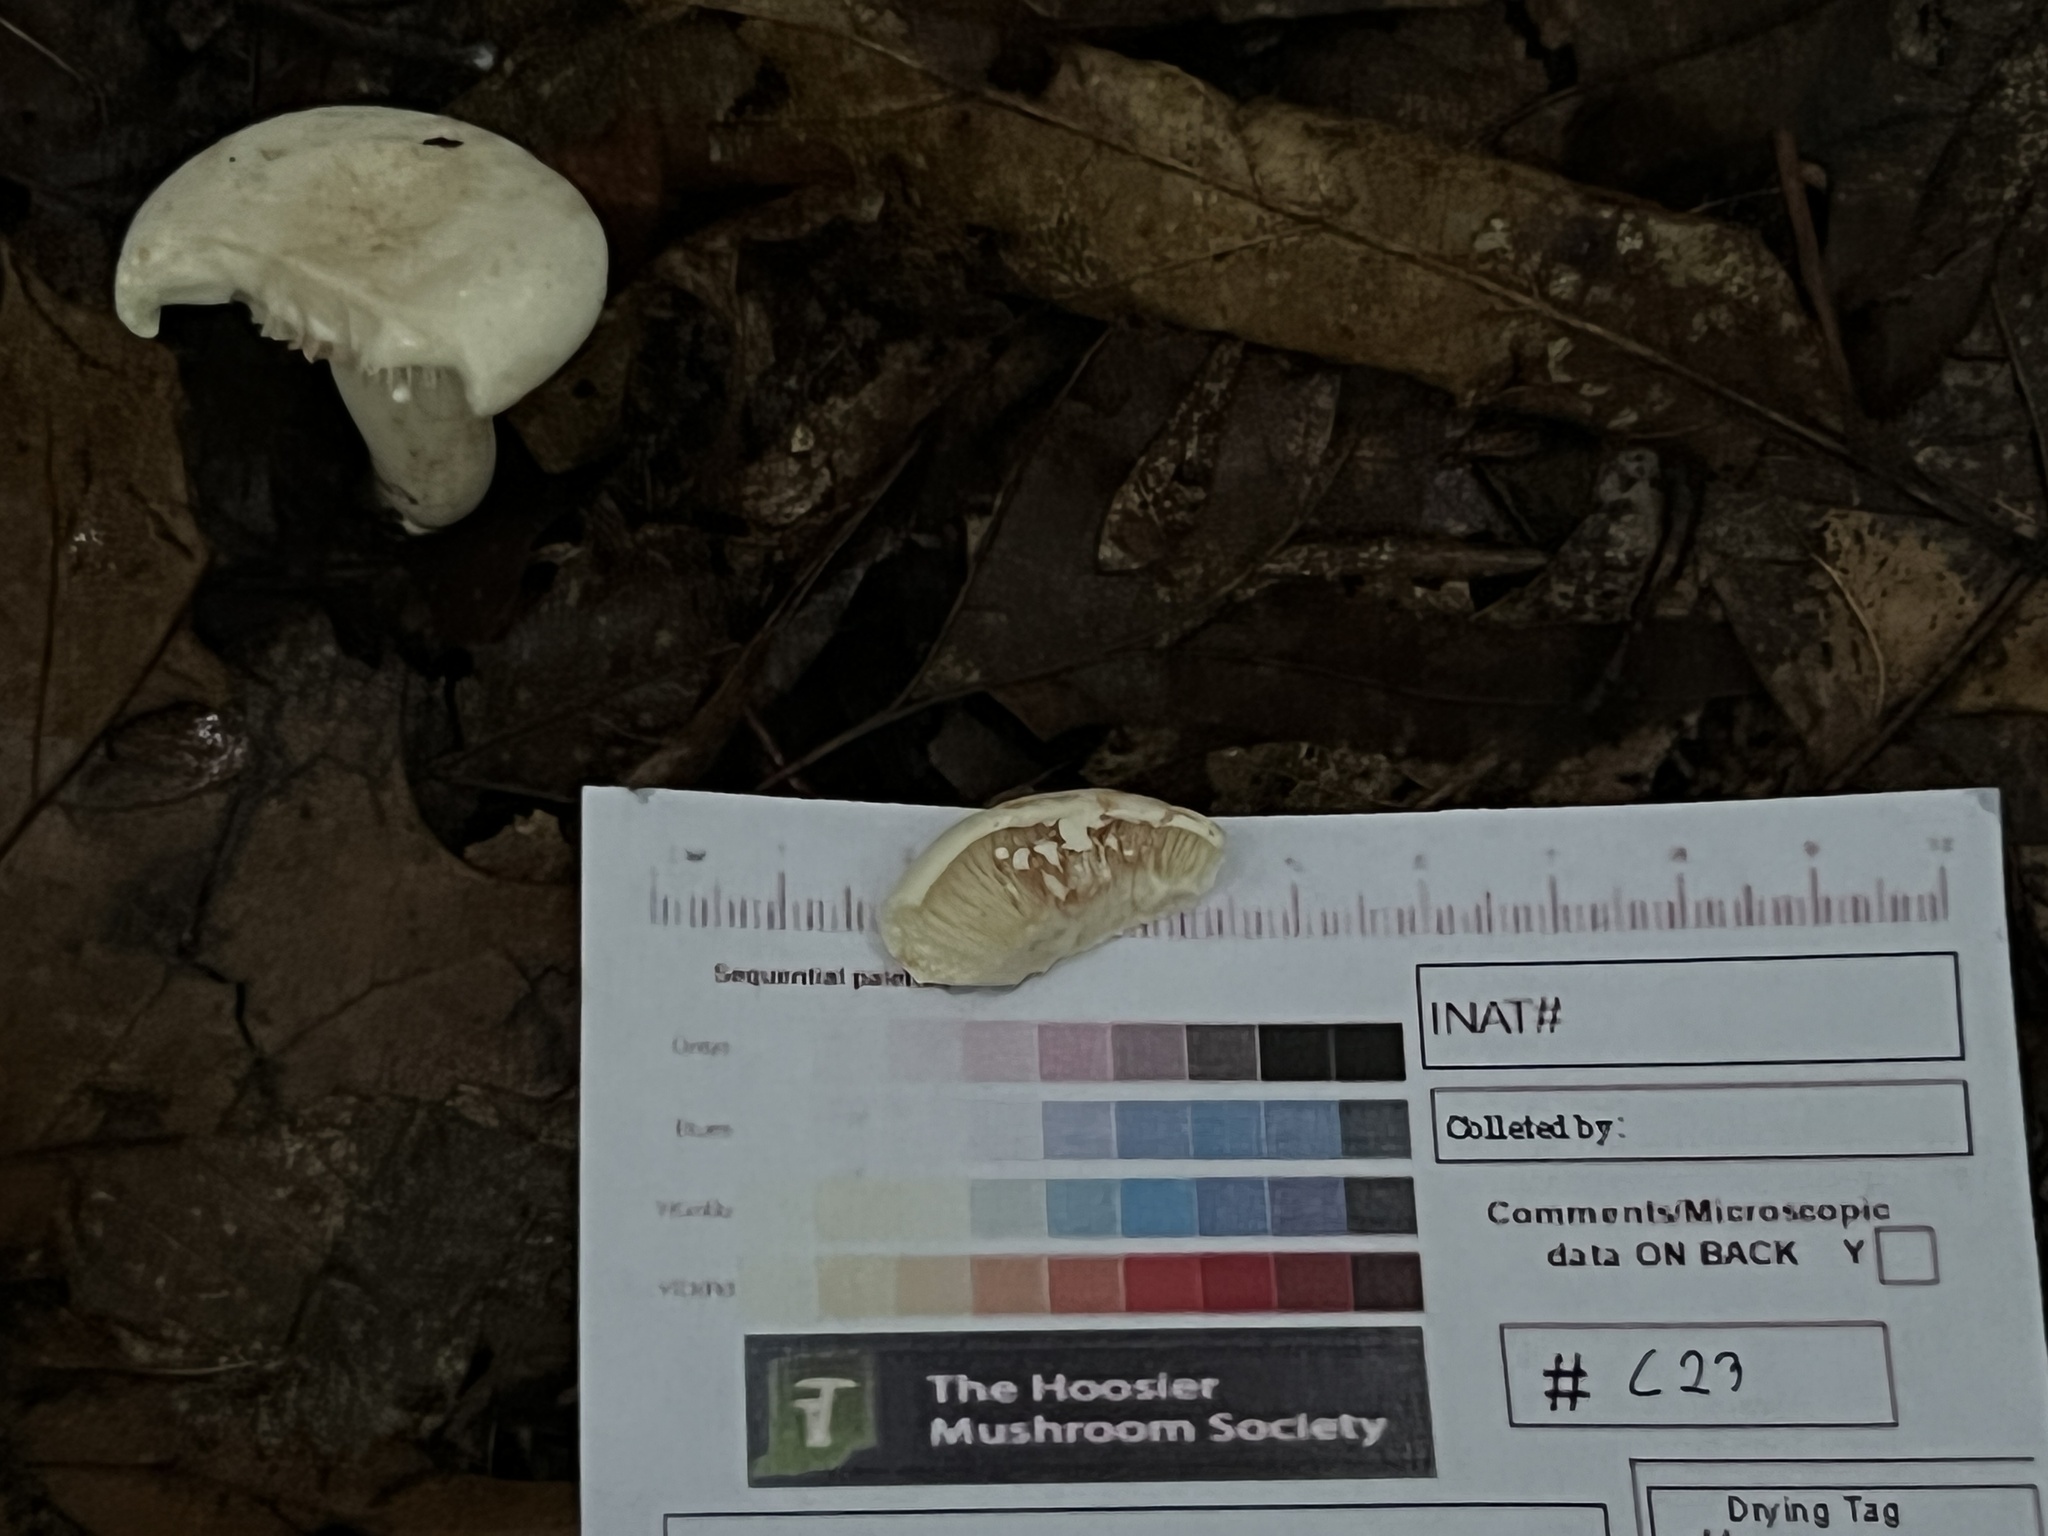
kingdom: Fungi
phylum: Basidiomycota
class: Agaricomycetes
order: Russulales
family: Russulaceae
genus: Lactarius
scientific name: Lactarius subvernalis
